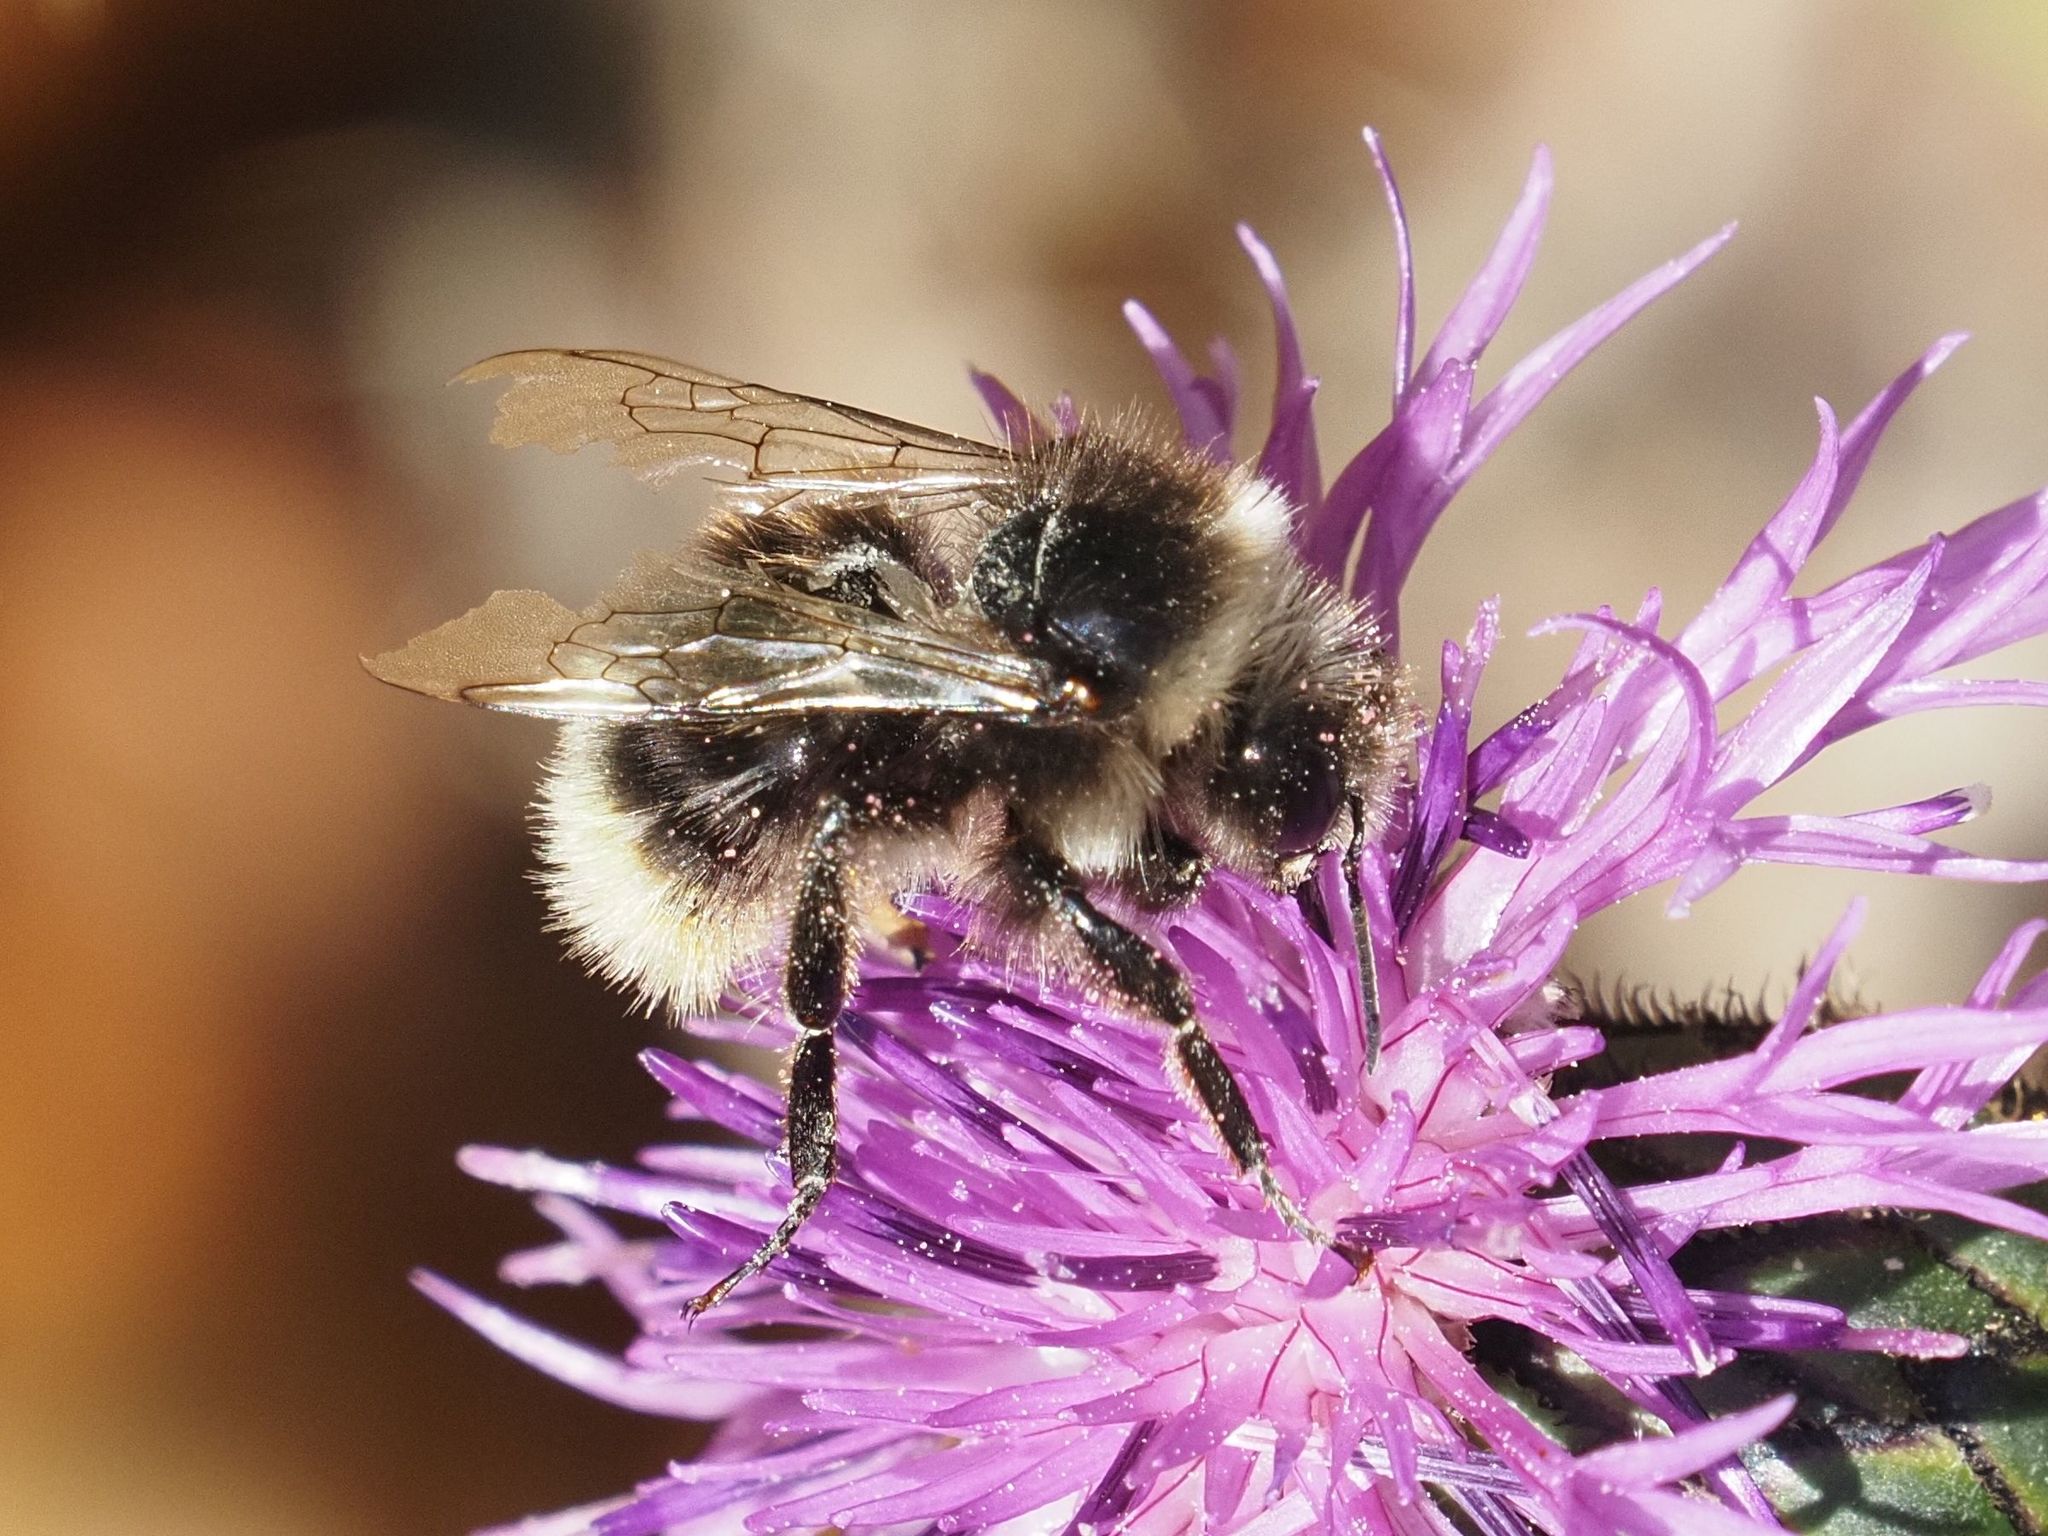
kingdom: Animalia
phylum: Arthropoda
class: Insecta
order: Hymenoptera
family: Apidae
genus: Bombus
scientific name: Bombus lapidarius
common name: Large red-tailed humble-bee
